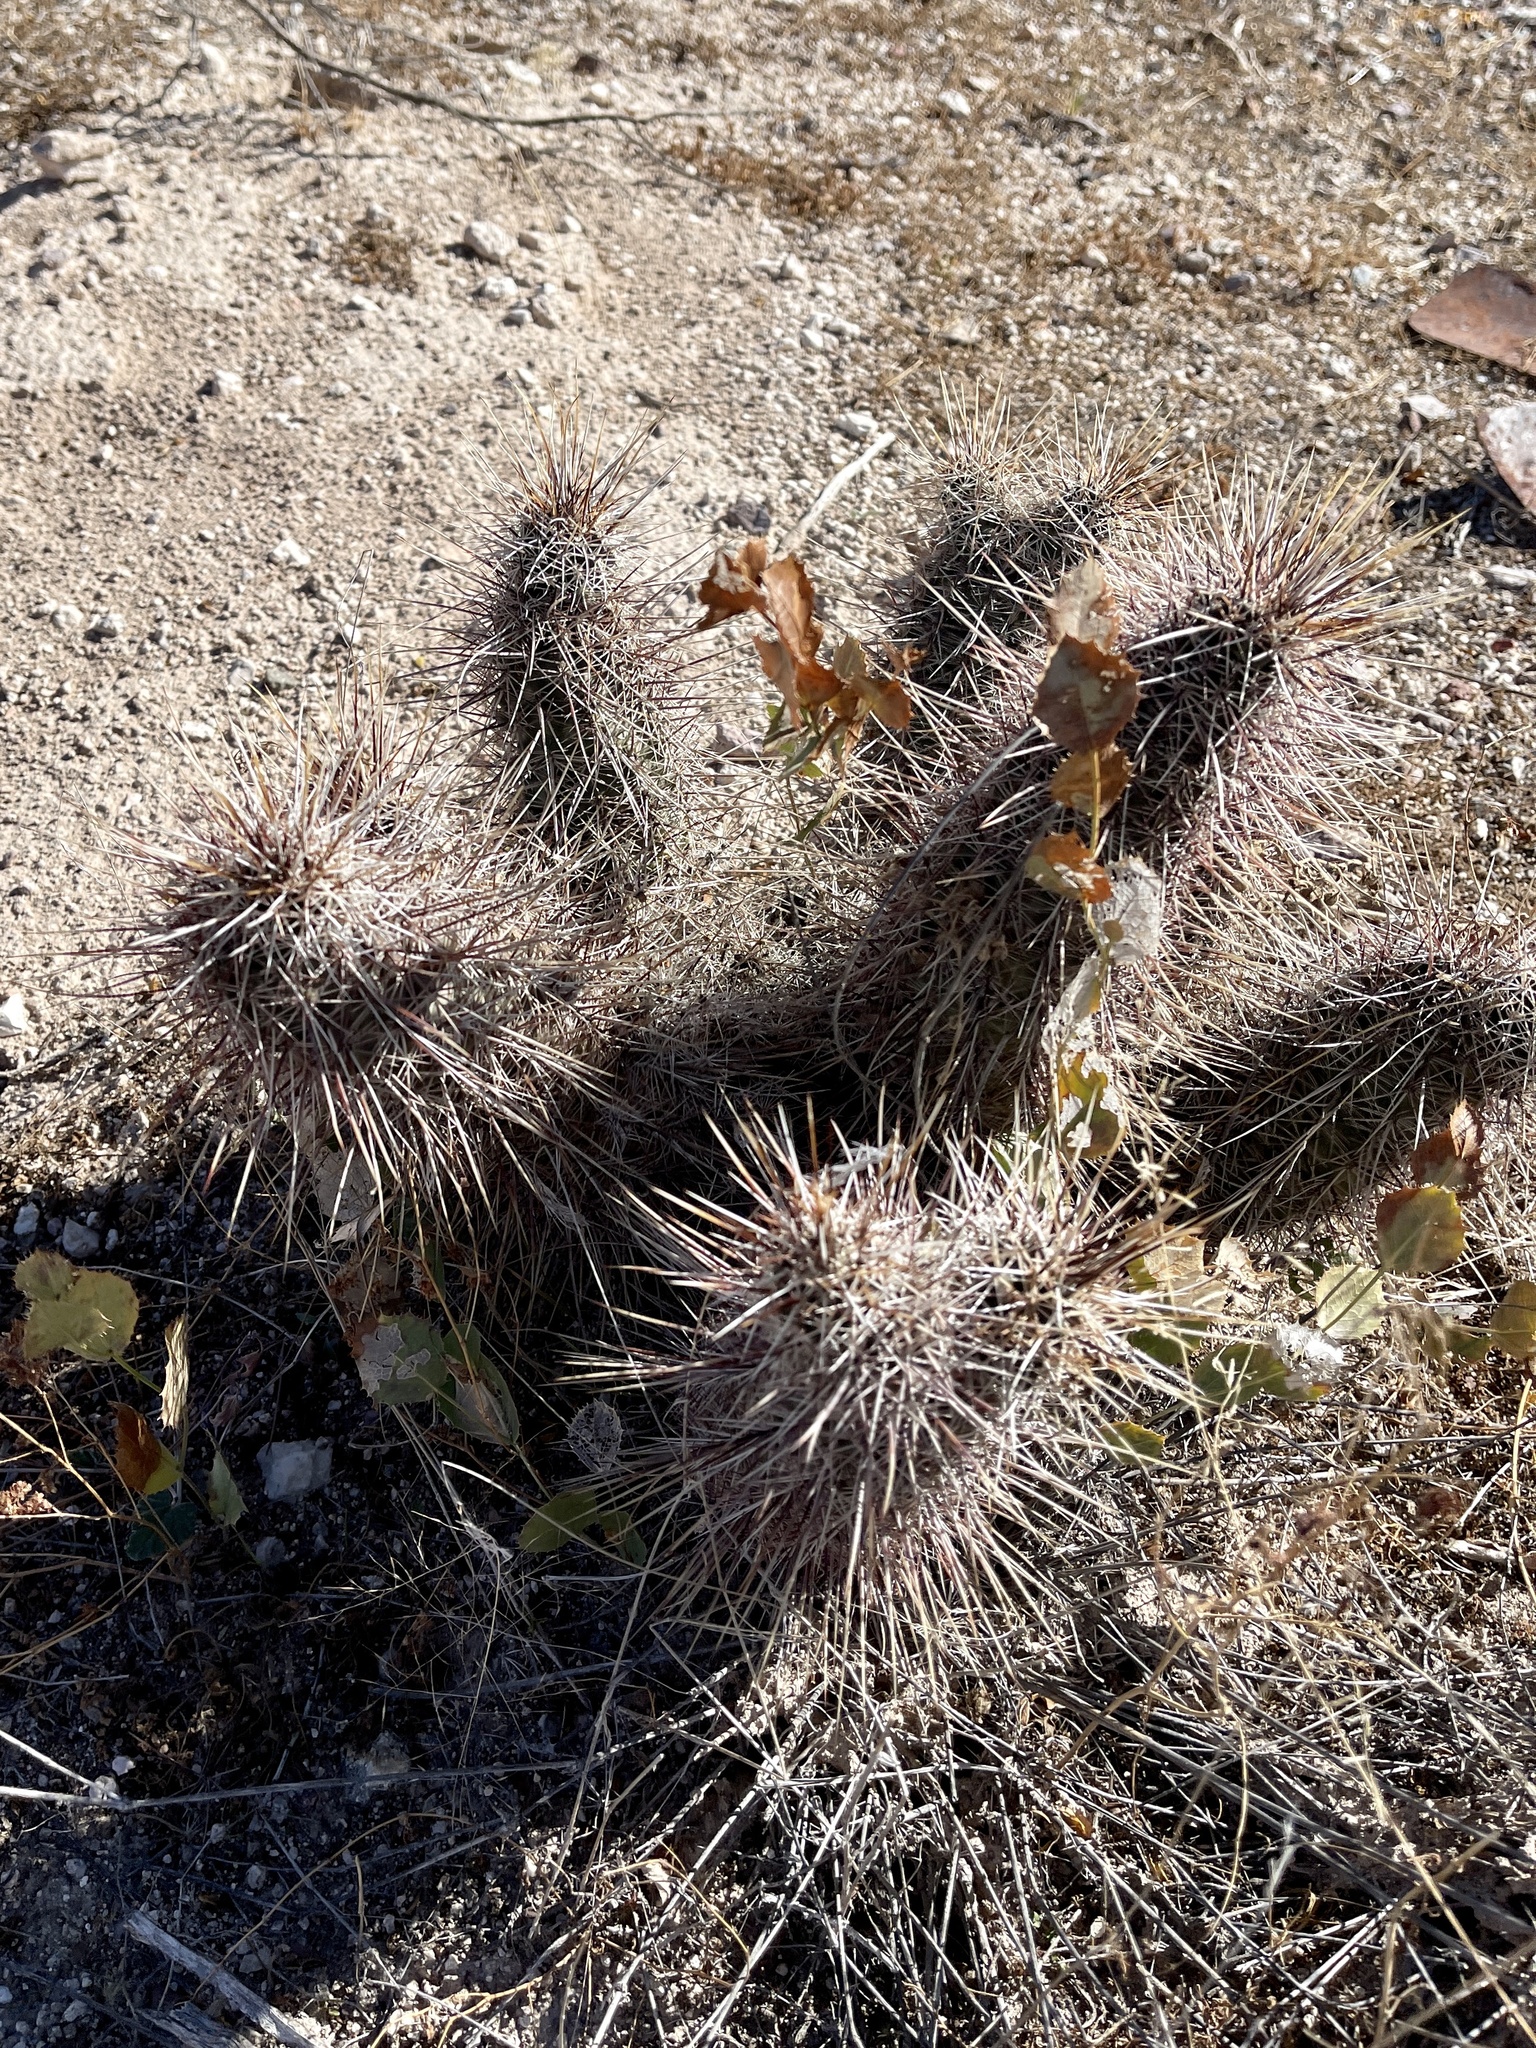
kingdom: Plantae
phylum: Tracheophyta
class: Magnoliopsida
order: Caryophyllales
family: Cactaceae
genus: Echinocereus
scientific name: Echinocereus fasciculatus
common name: Bundle hedgehog
